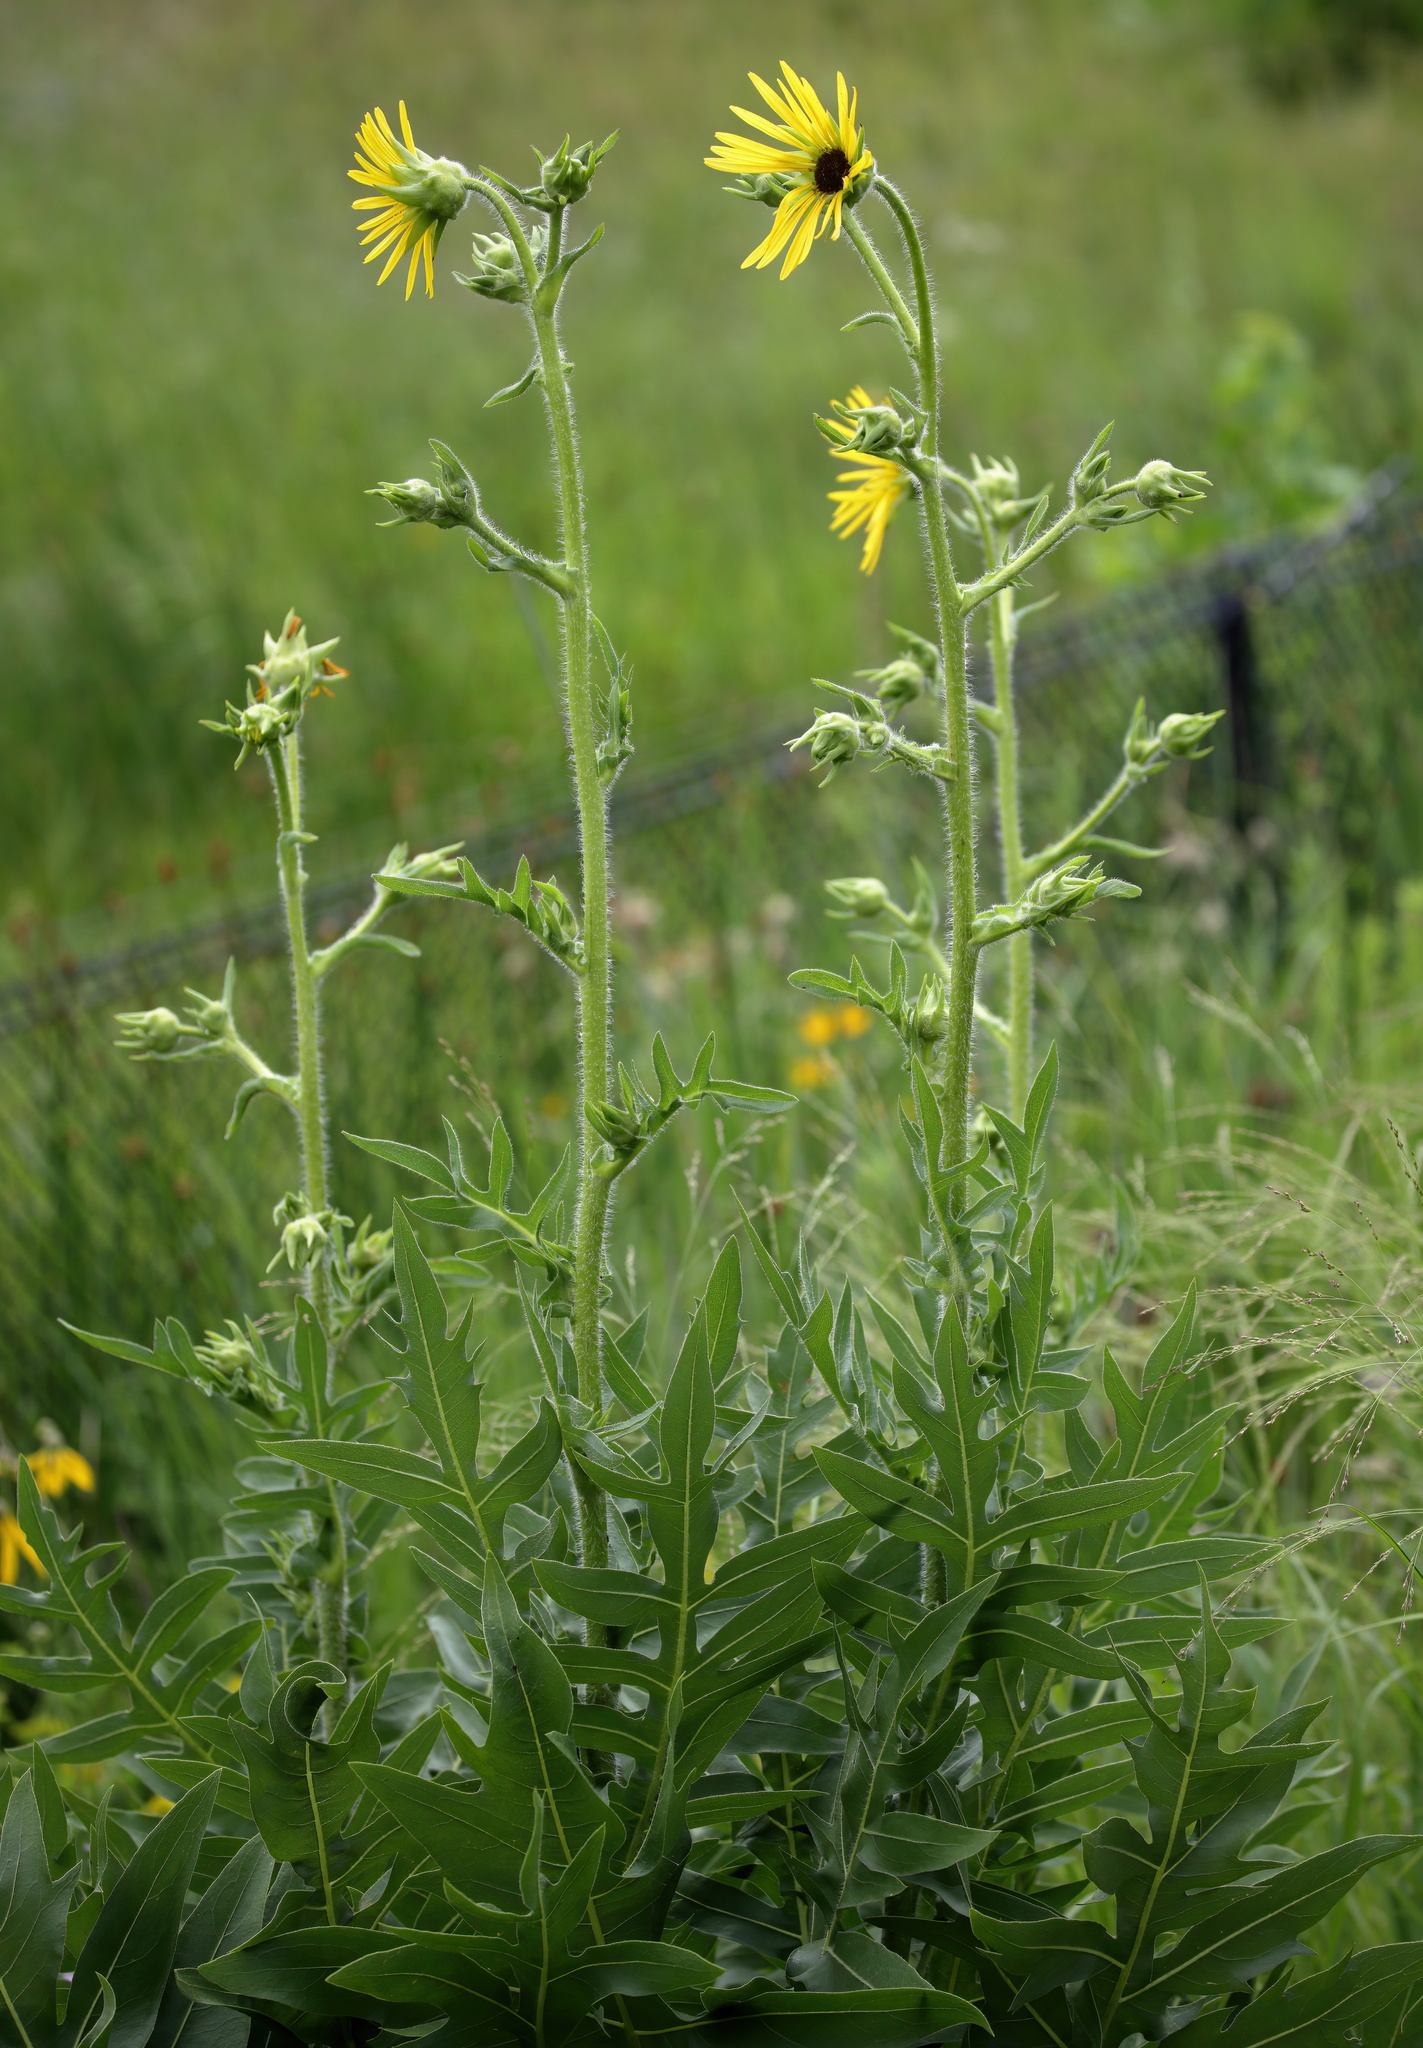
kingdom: Plantae
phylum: Tracheophyta
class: Magnoliopsida
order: Asterales
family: Asteraceae
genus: Silphium
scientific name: Silphium laciniatum
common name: Polarplant
